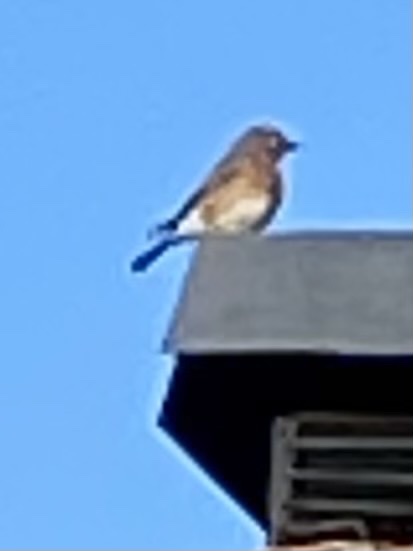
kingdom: Animalia
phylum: Chordata
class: Aves
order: Passeriformes
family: Turdidae
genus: Sialia
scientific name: Sialia sialis
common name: Eastern bluebird
